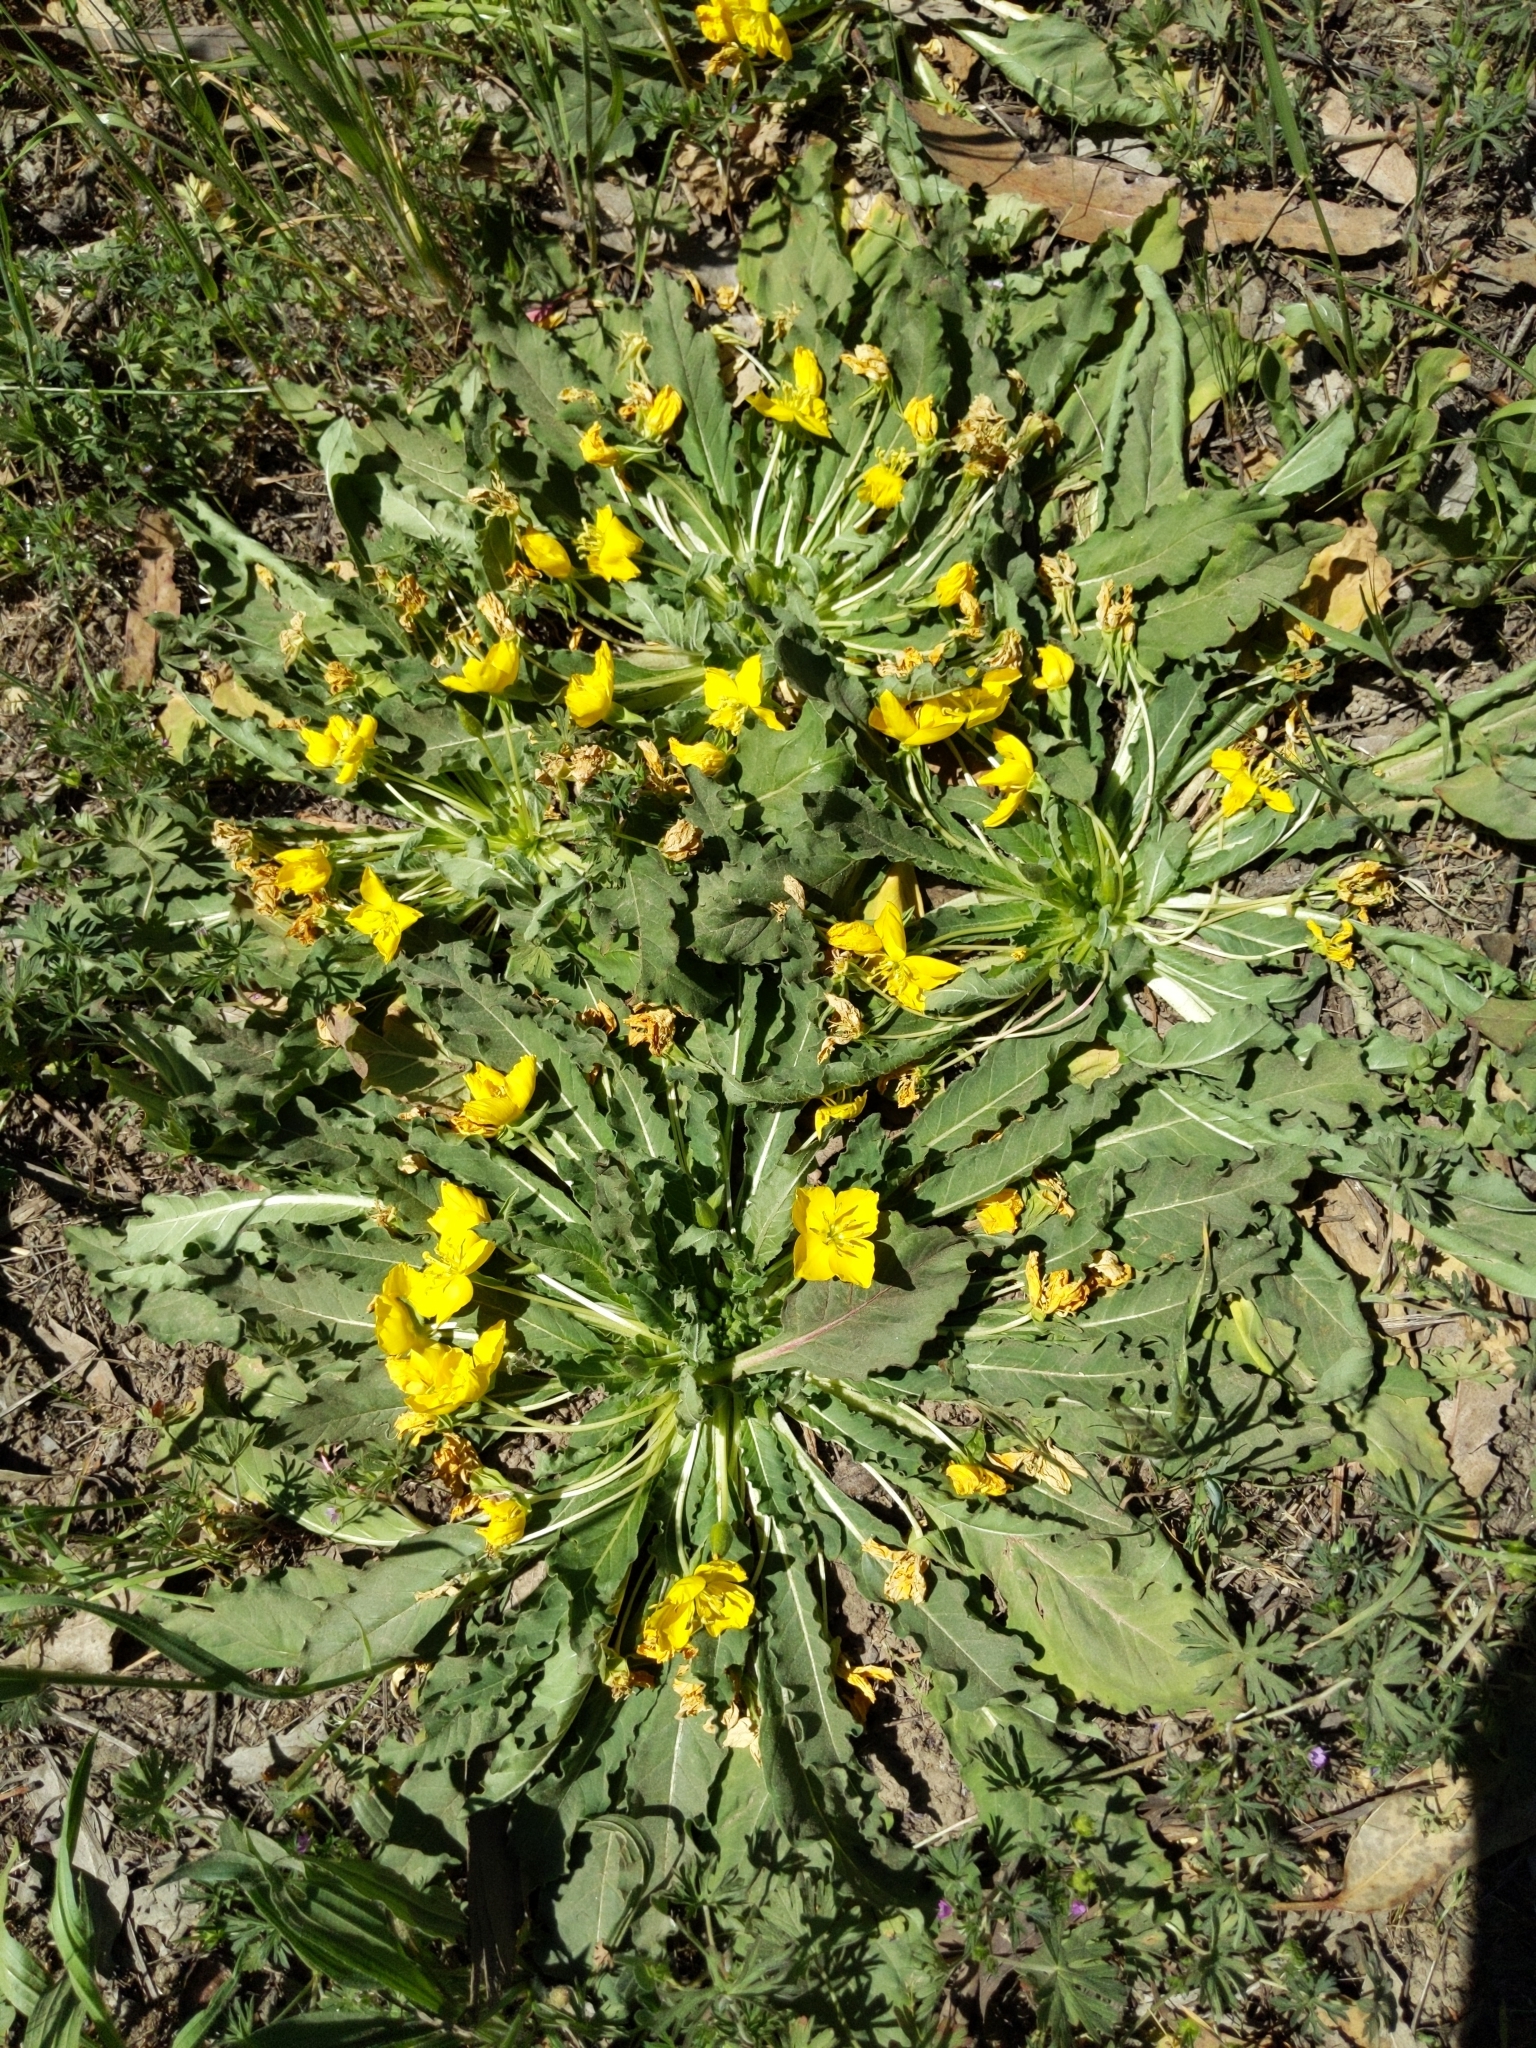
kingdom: Plantae
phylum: Tracheophyta
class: Magnoliopsida
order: Myrtales
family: Onagraceae
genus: Taraxia
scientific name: Taraxia ovata
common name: Goldeneggs
